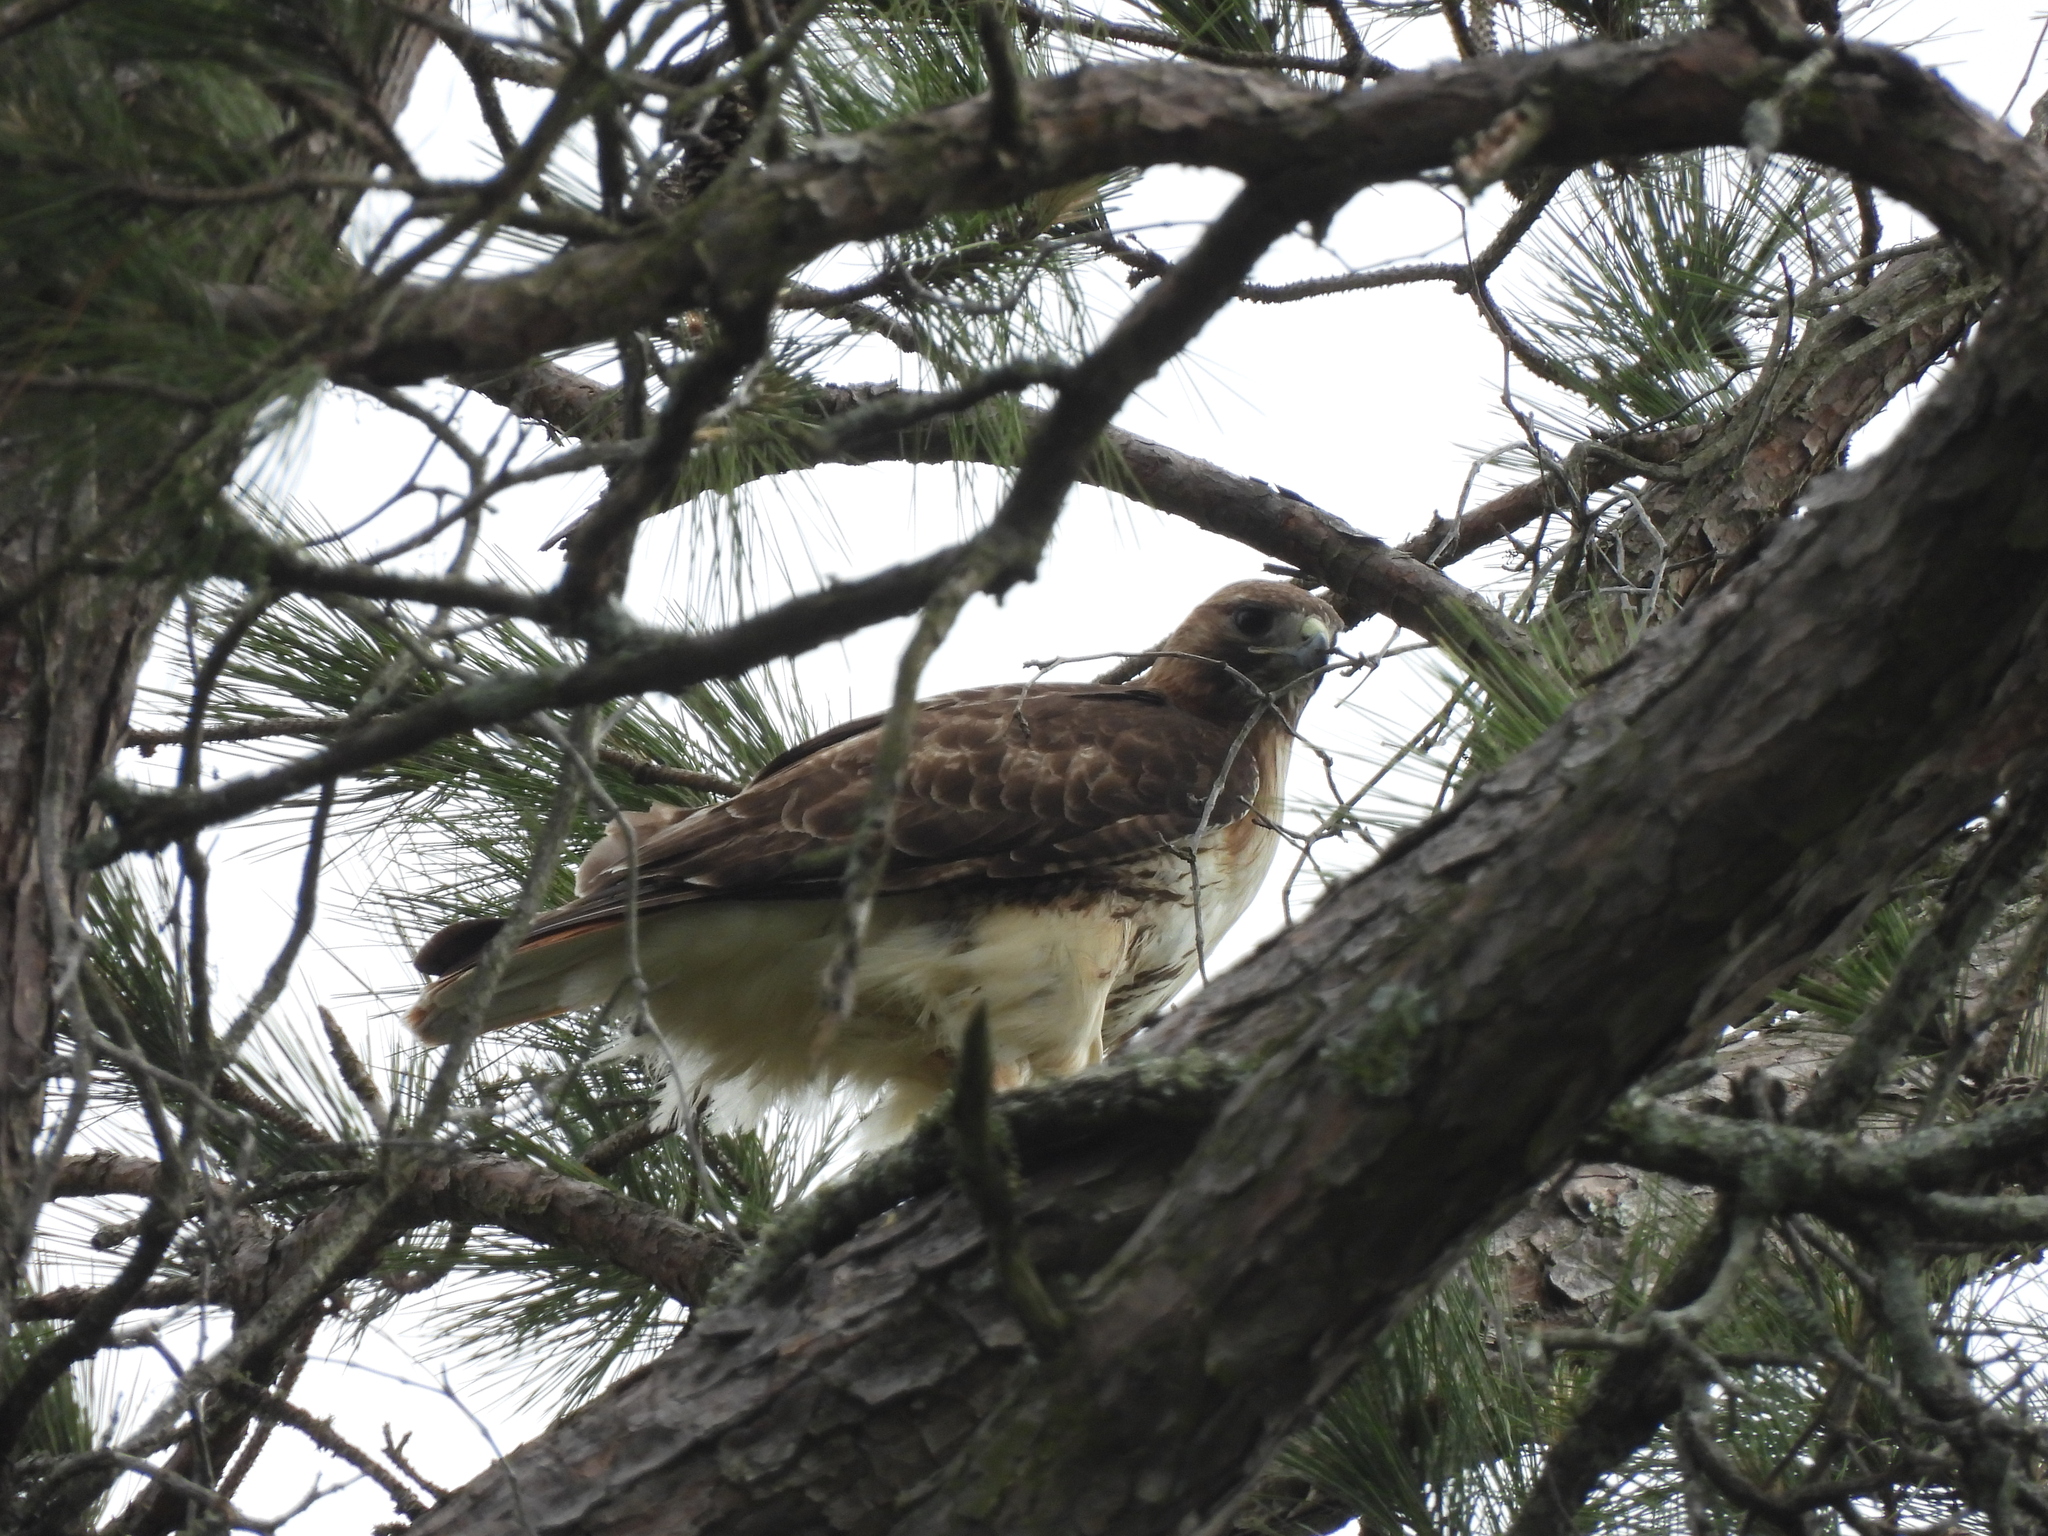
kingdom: Animalia
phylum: Chordata
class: Aves
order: Accipitriformes
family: Accipitridae
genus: Buteo
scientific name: Buteo jamaicensis
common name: Red-tailed hawk
